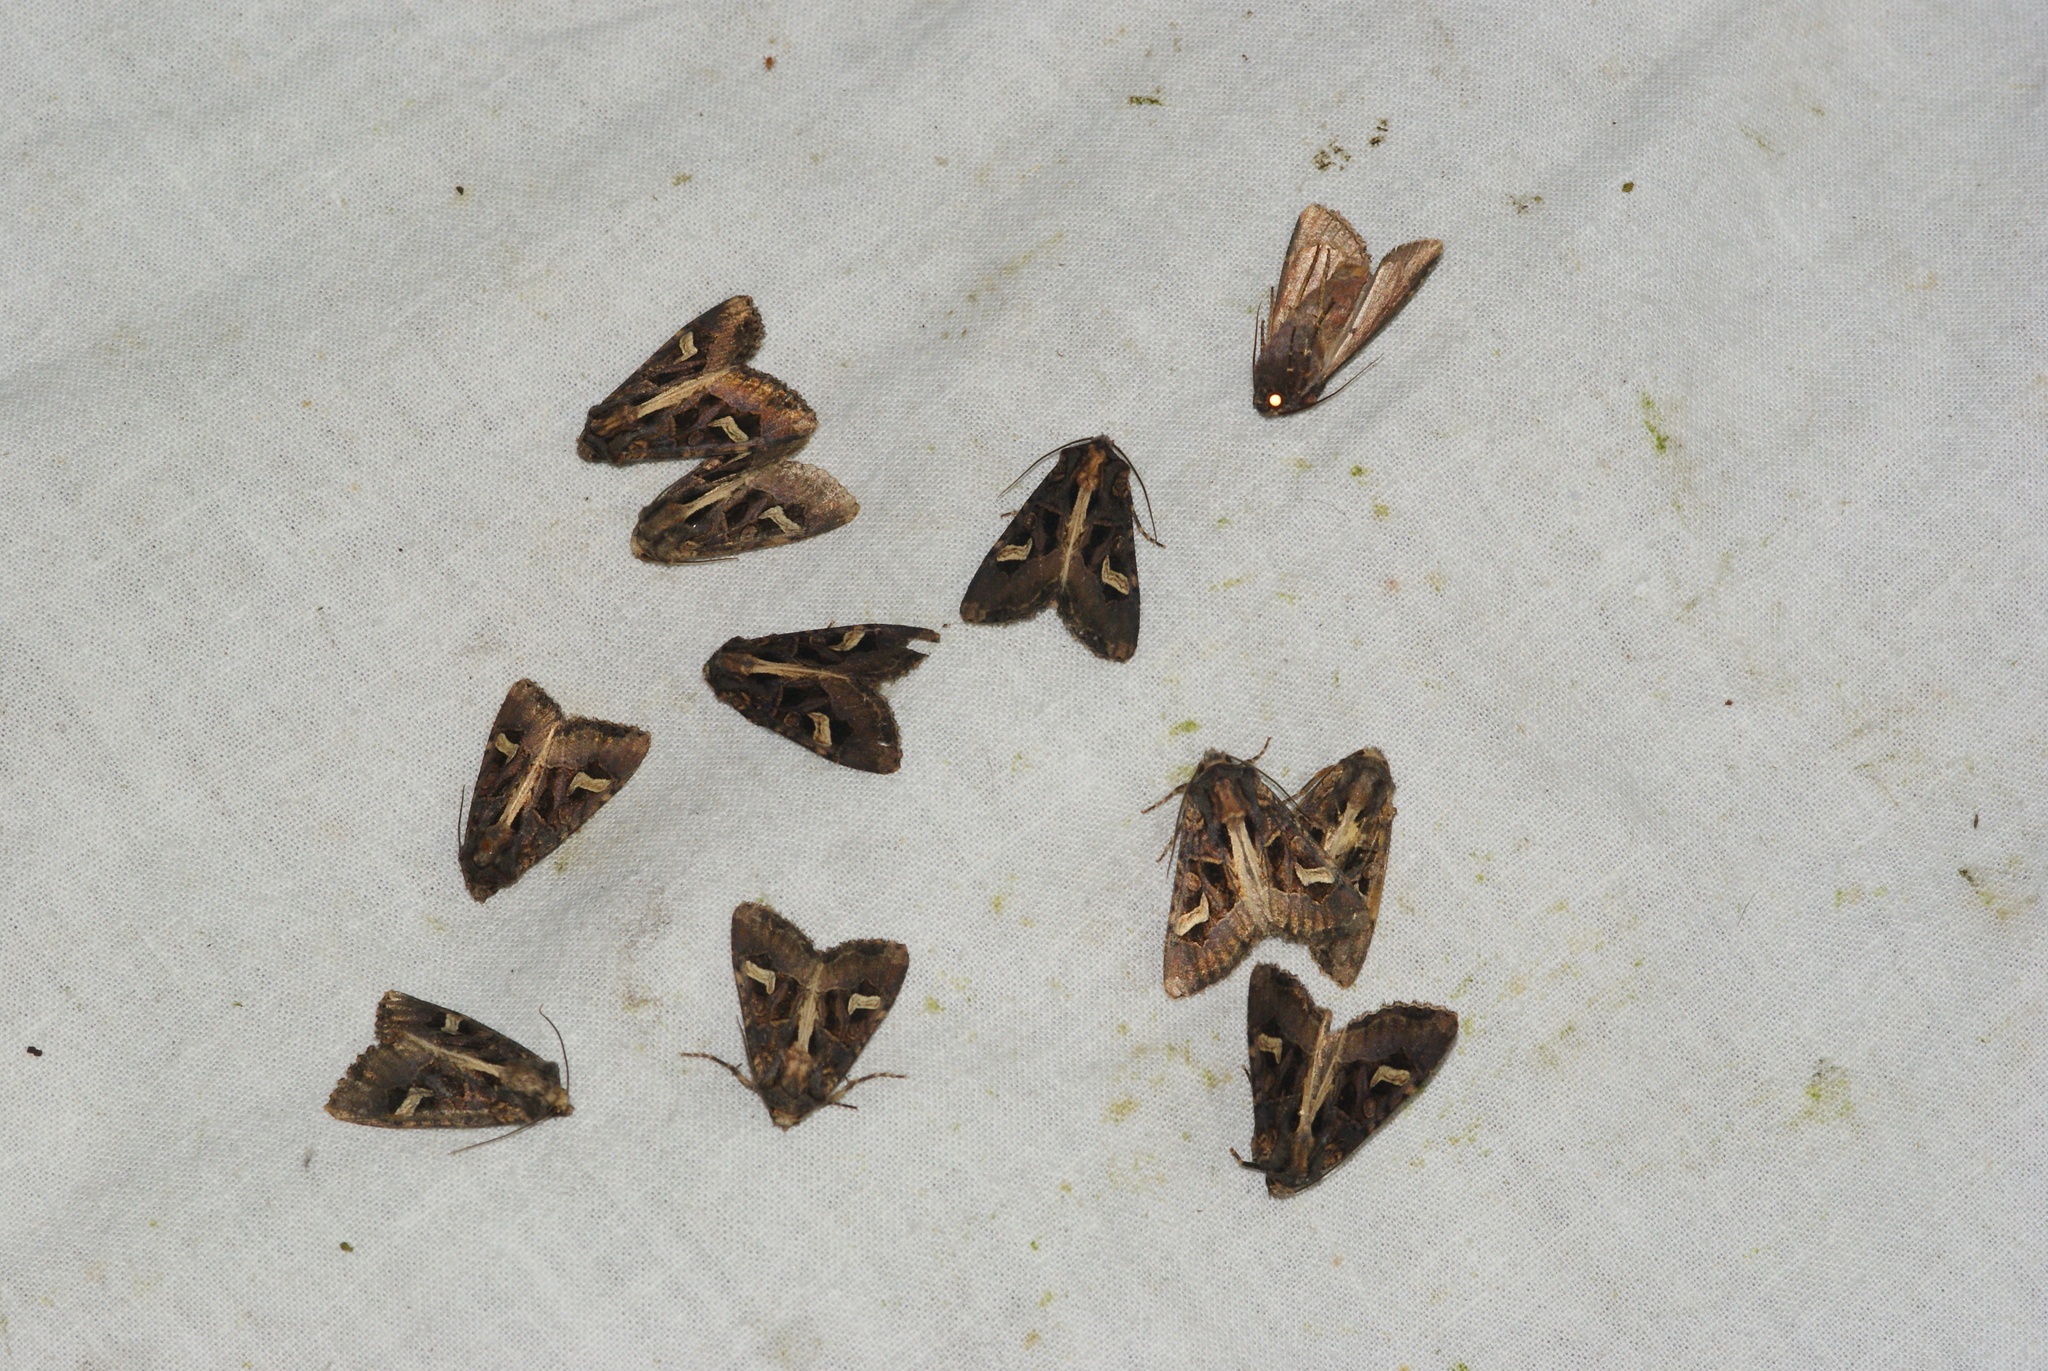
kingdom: Animalia
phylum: Arthropoda
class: Insecta
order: Lepidoptera
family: Noctuidae
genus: Trigonophora
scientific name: Trigonophora flammea
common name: Flame brocade
